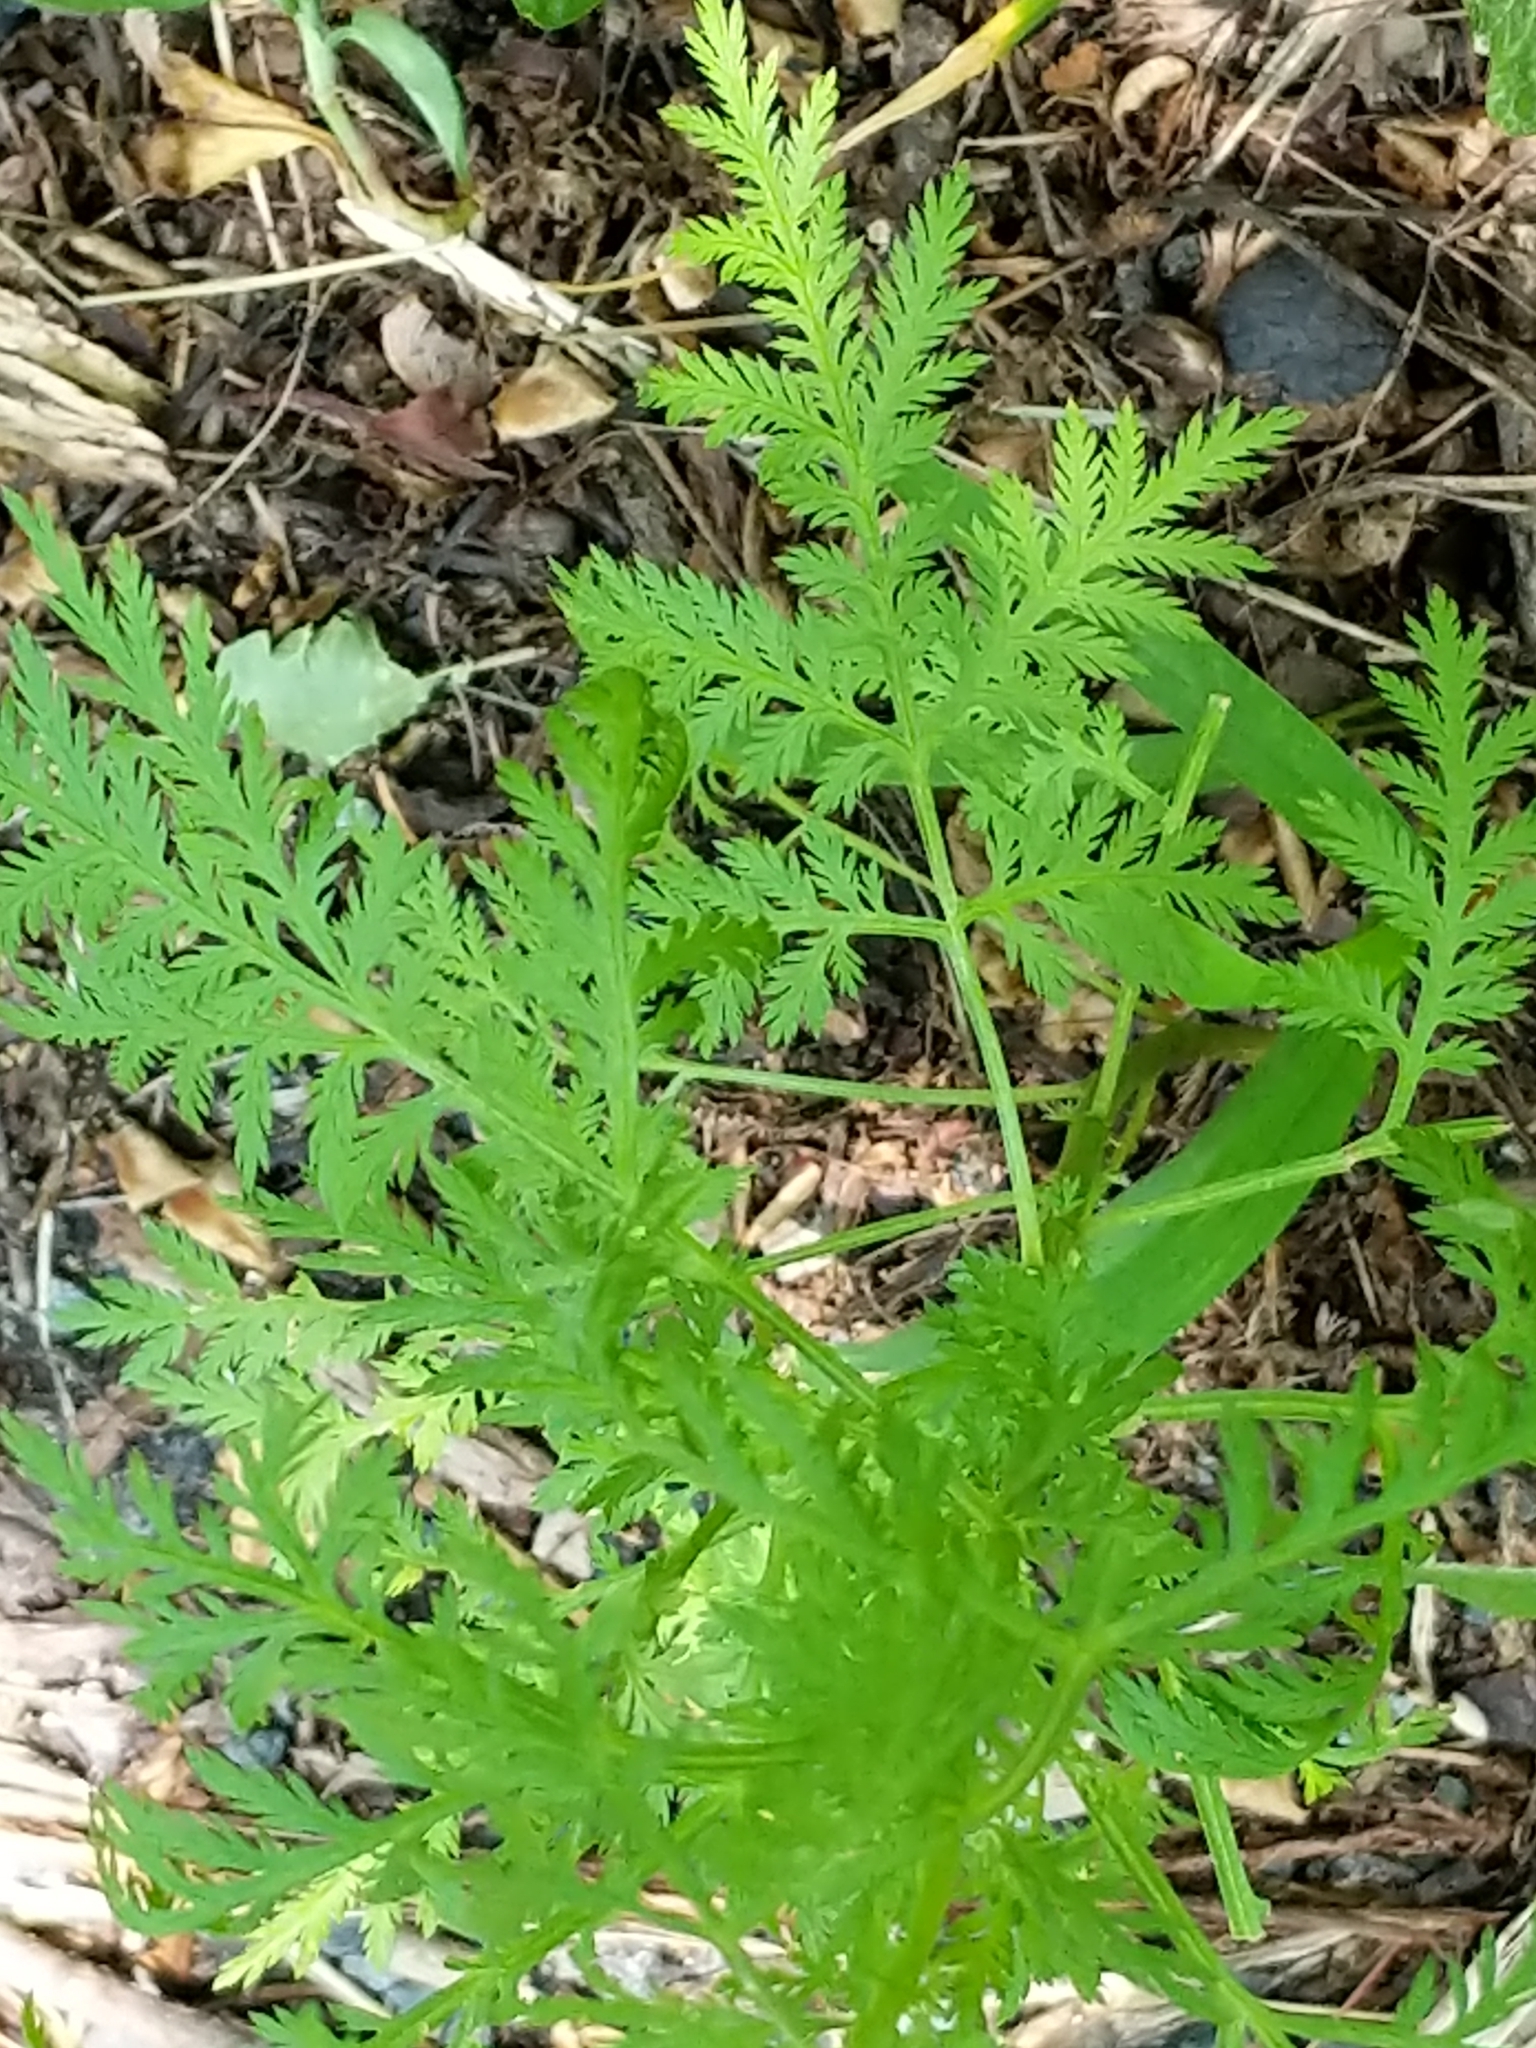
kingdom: Plantae
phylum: Tracheophyta
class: Magnoliopsida
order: Asterales
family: Asteraceae
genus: Artemisia
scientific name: Artemisia annua
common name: Sweet sagewort
